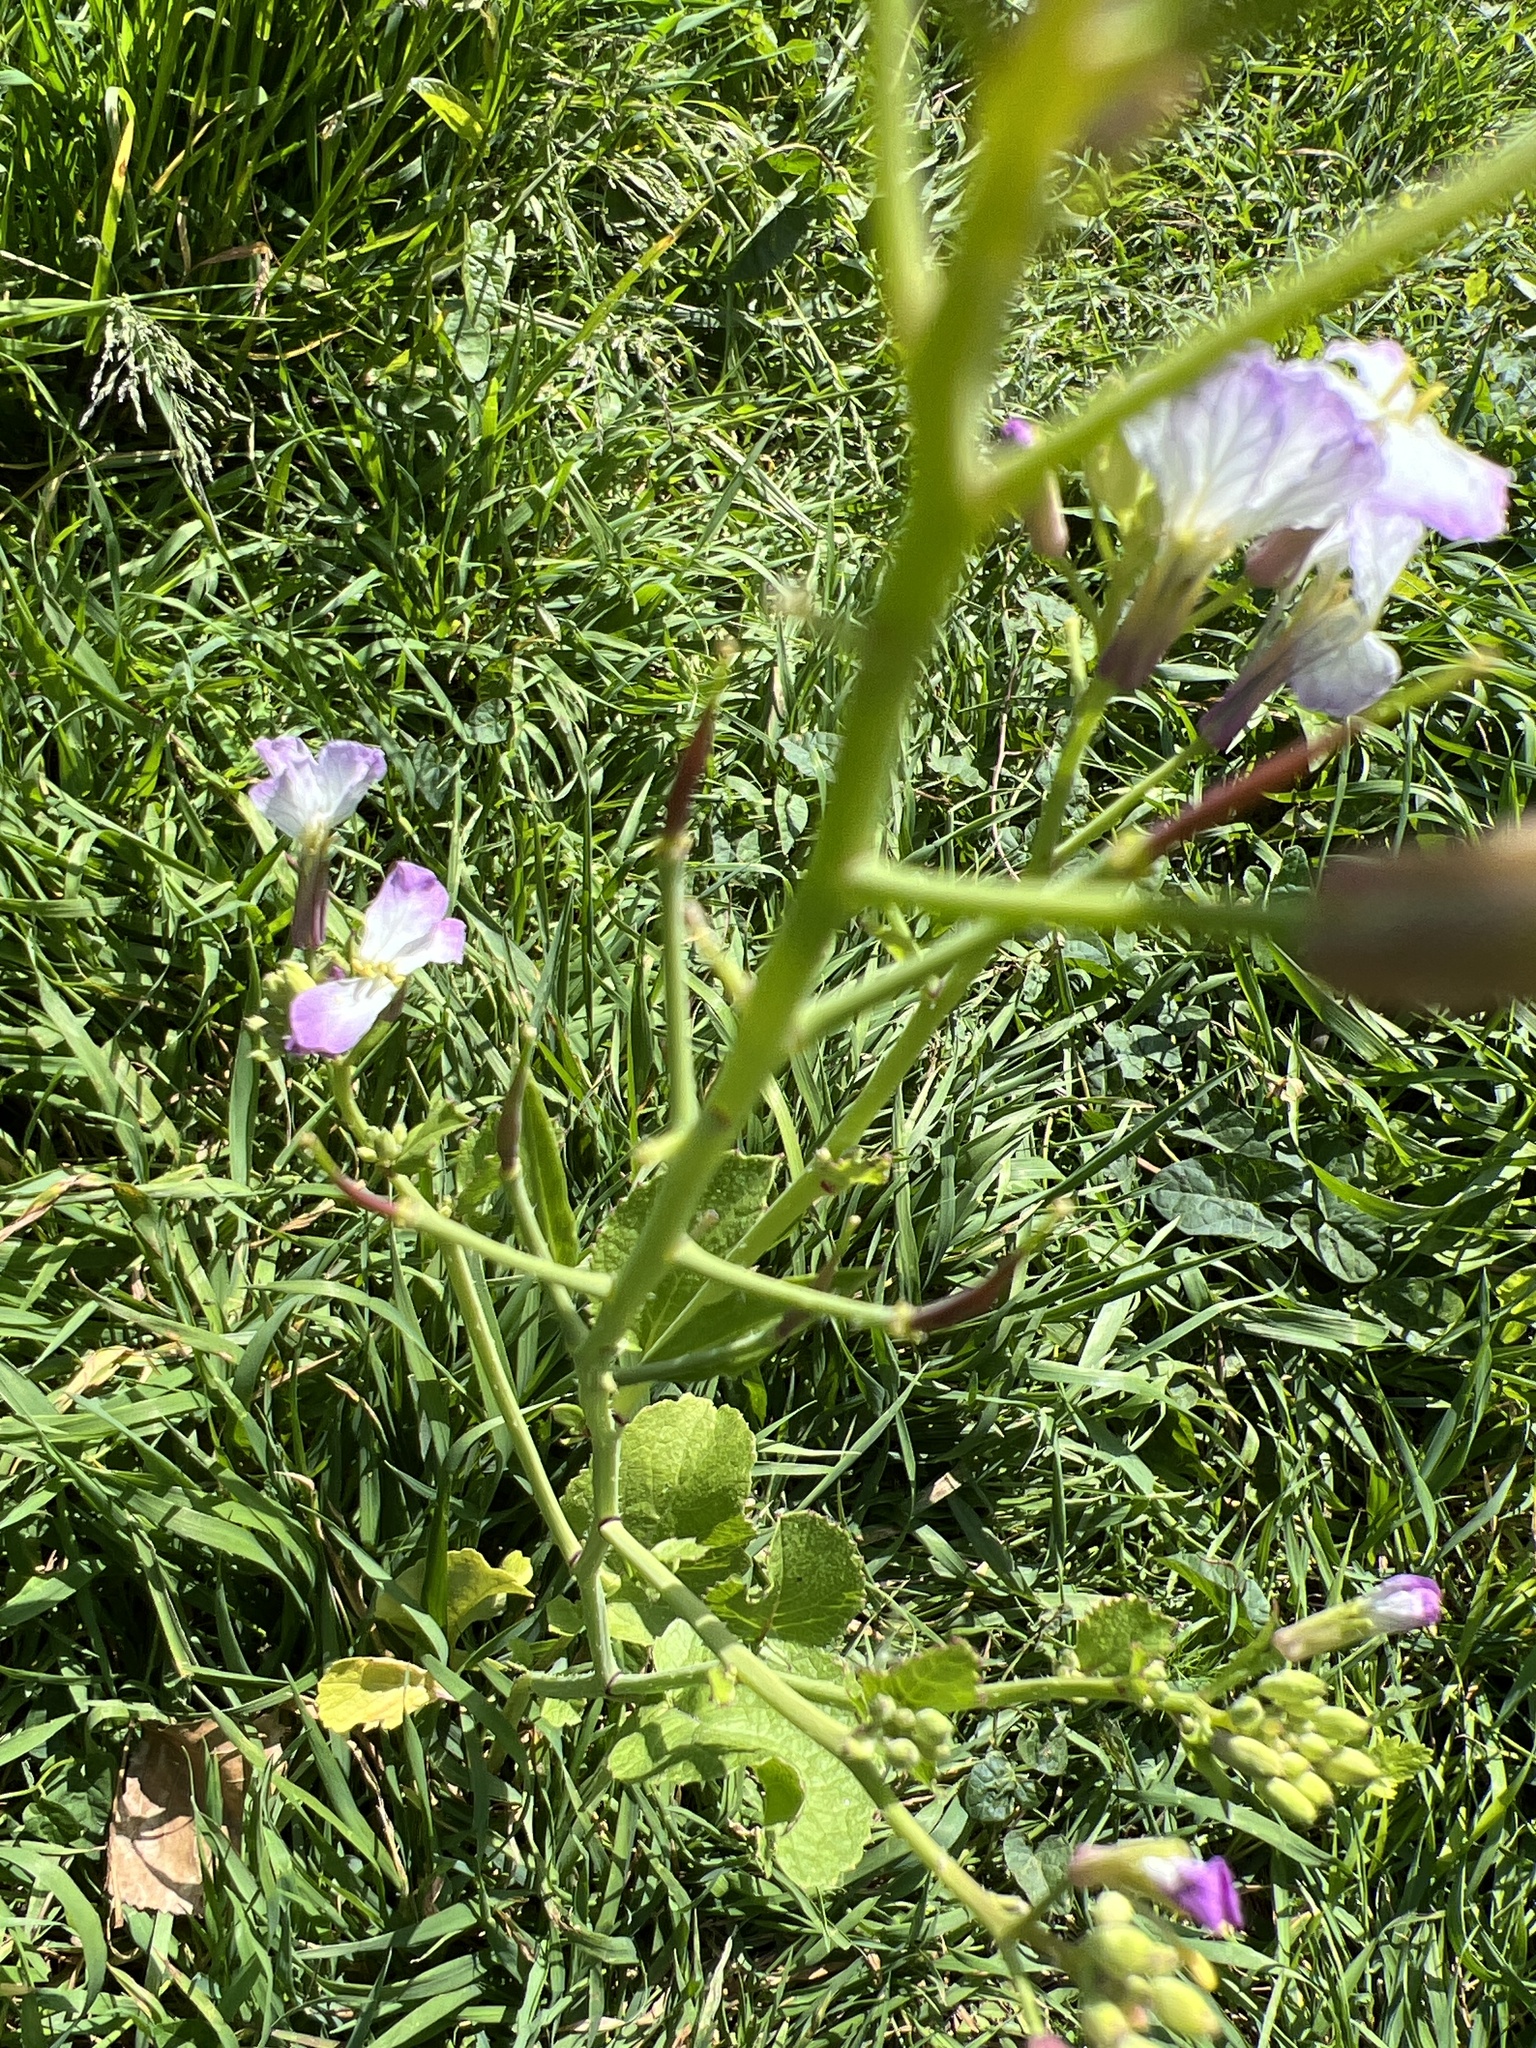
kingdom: Plantae
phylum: Tracheophyta
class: Magnoliopsida
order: Brassicales
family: Brassicaceae
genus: Raphanus
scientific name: Raphanus sativus
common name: Cultivated radish
